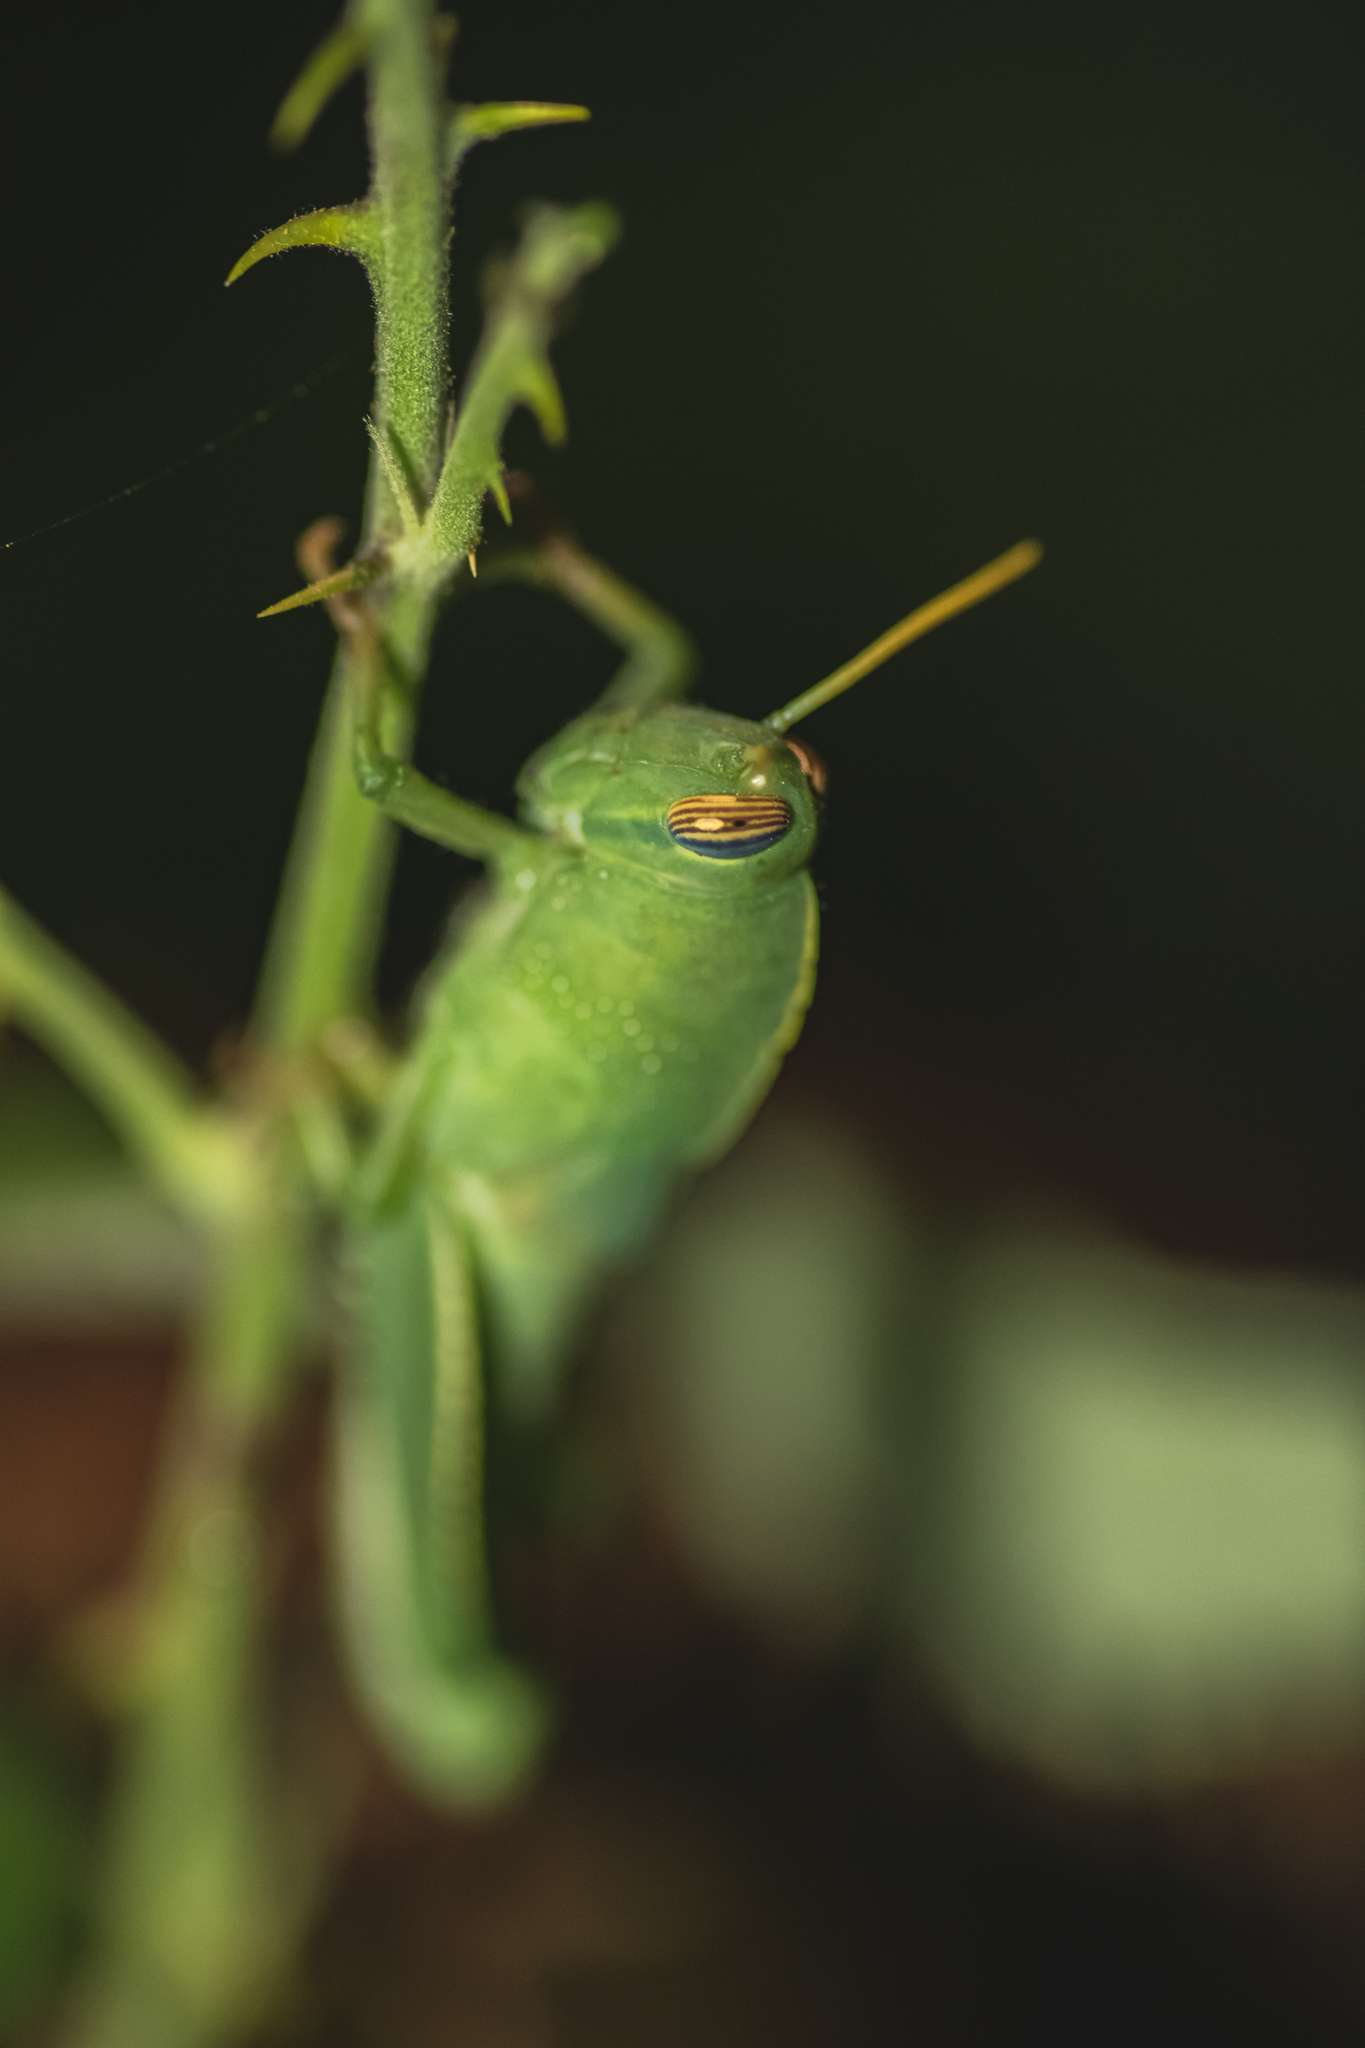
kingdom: Animalia
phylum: Arthropoda
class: Insecta
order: Orthoptera
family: Acrididae
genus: Anacridium
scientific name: Anacridium aegyptium
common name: Egyptian grasshopper
